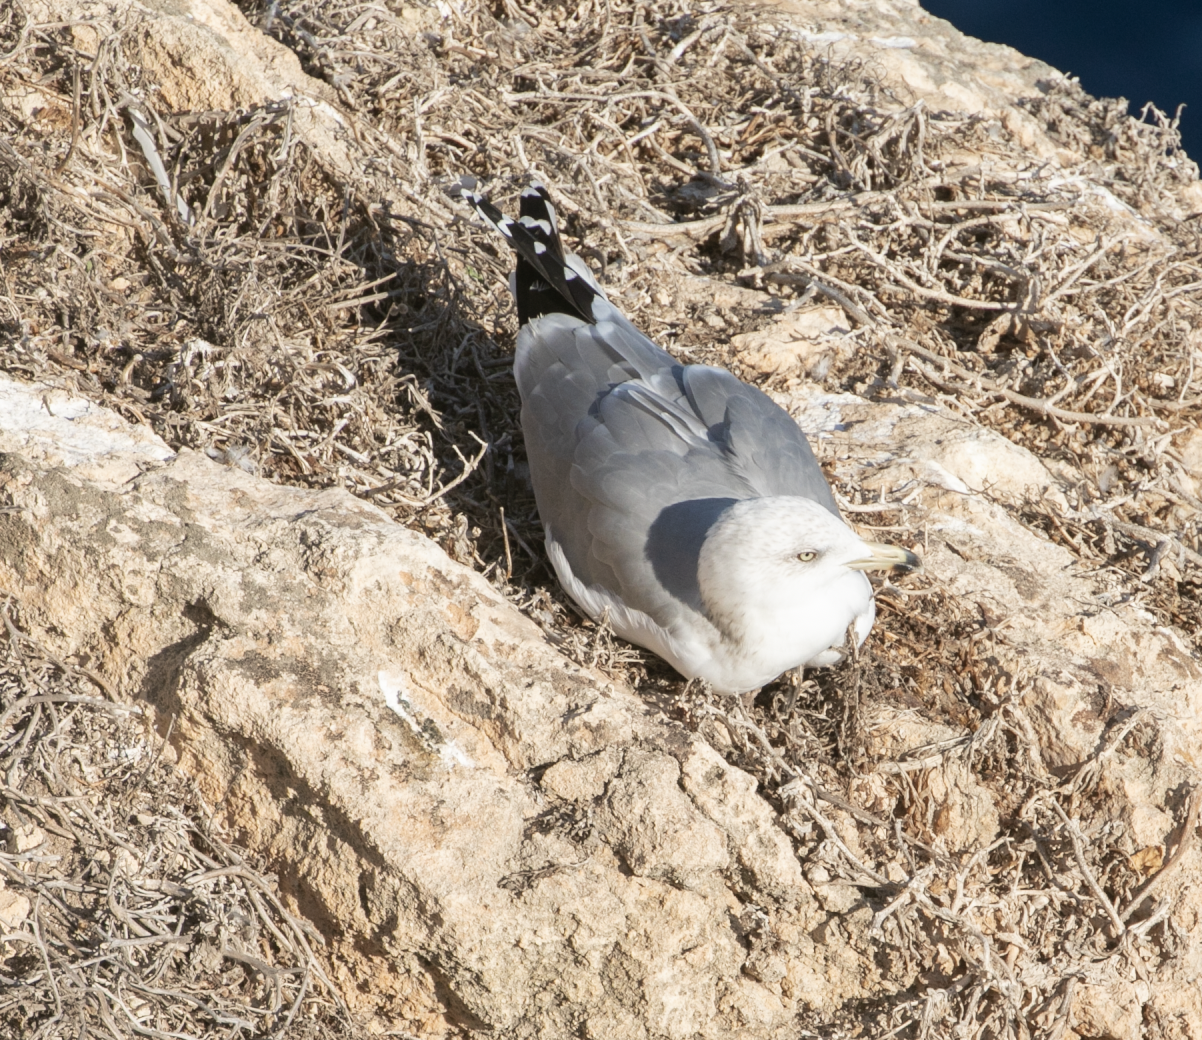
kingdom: Animalia
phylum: Chordata
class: Aves
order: Charadriiformes
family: Laridae
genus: Larus
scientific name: Larus michahellis
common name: Yellow-legged gull
